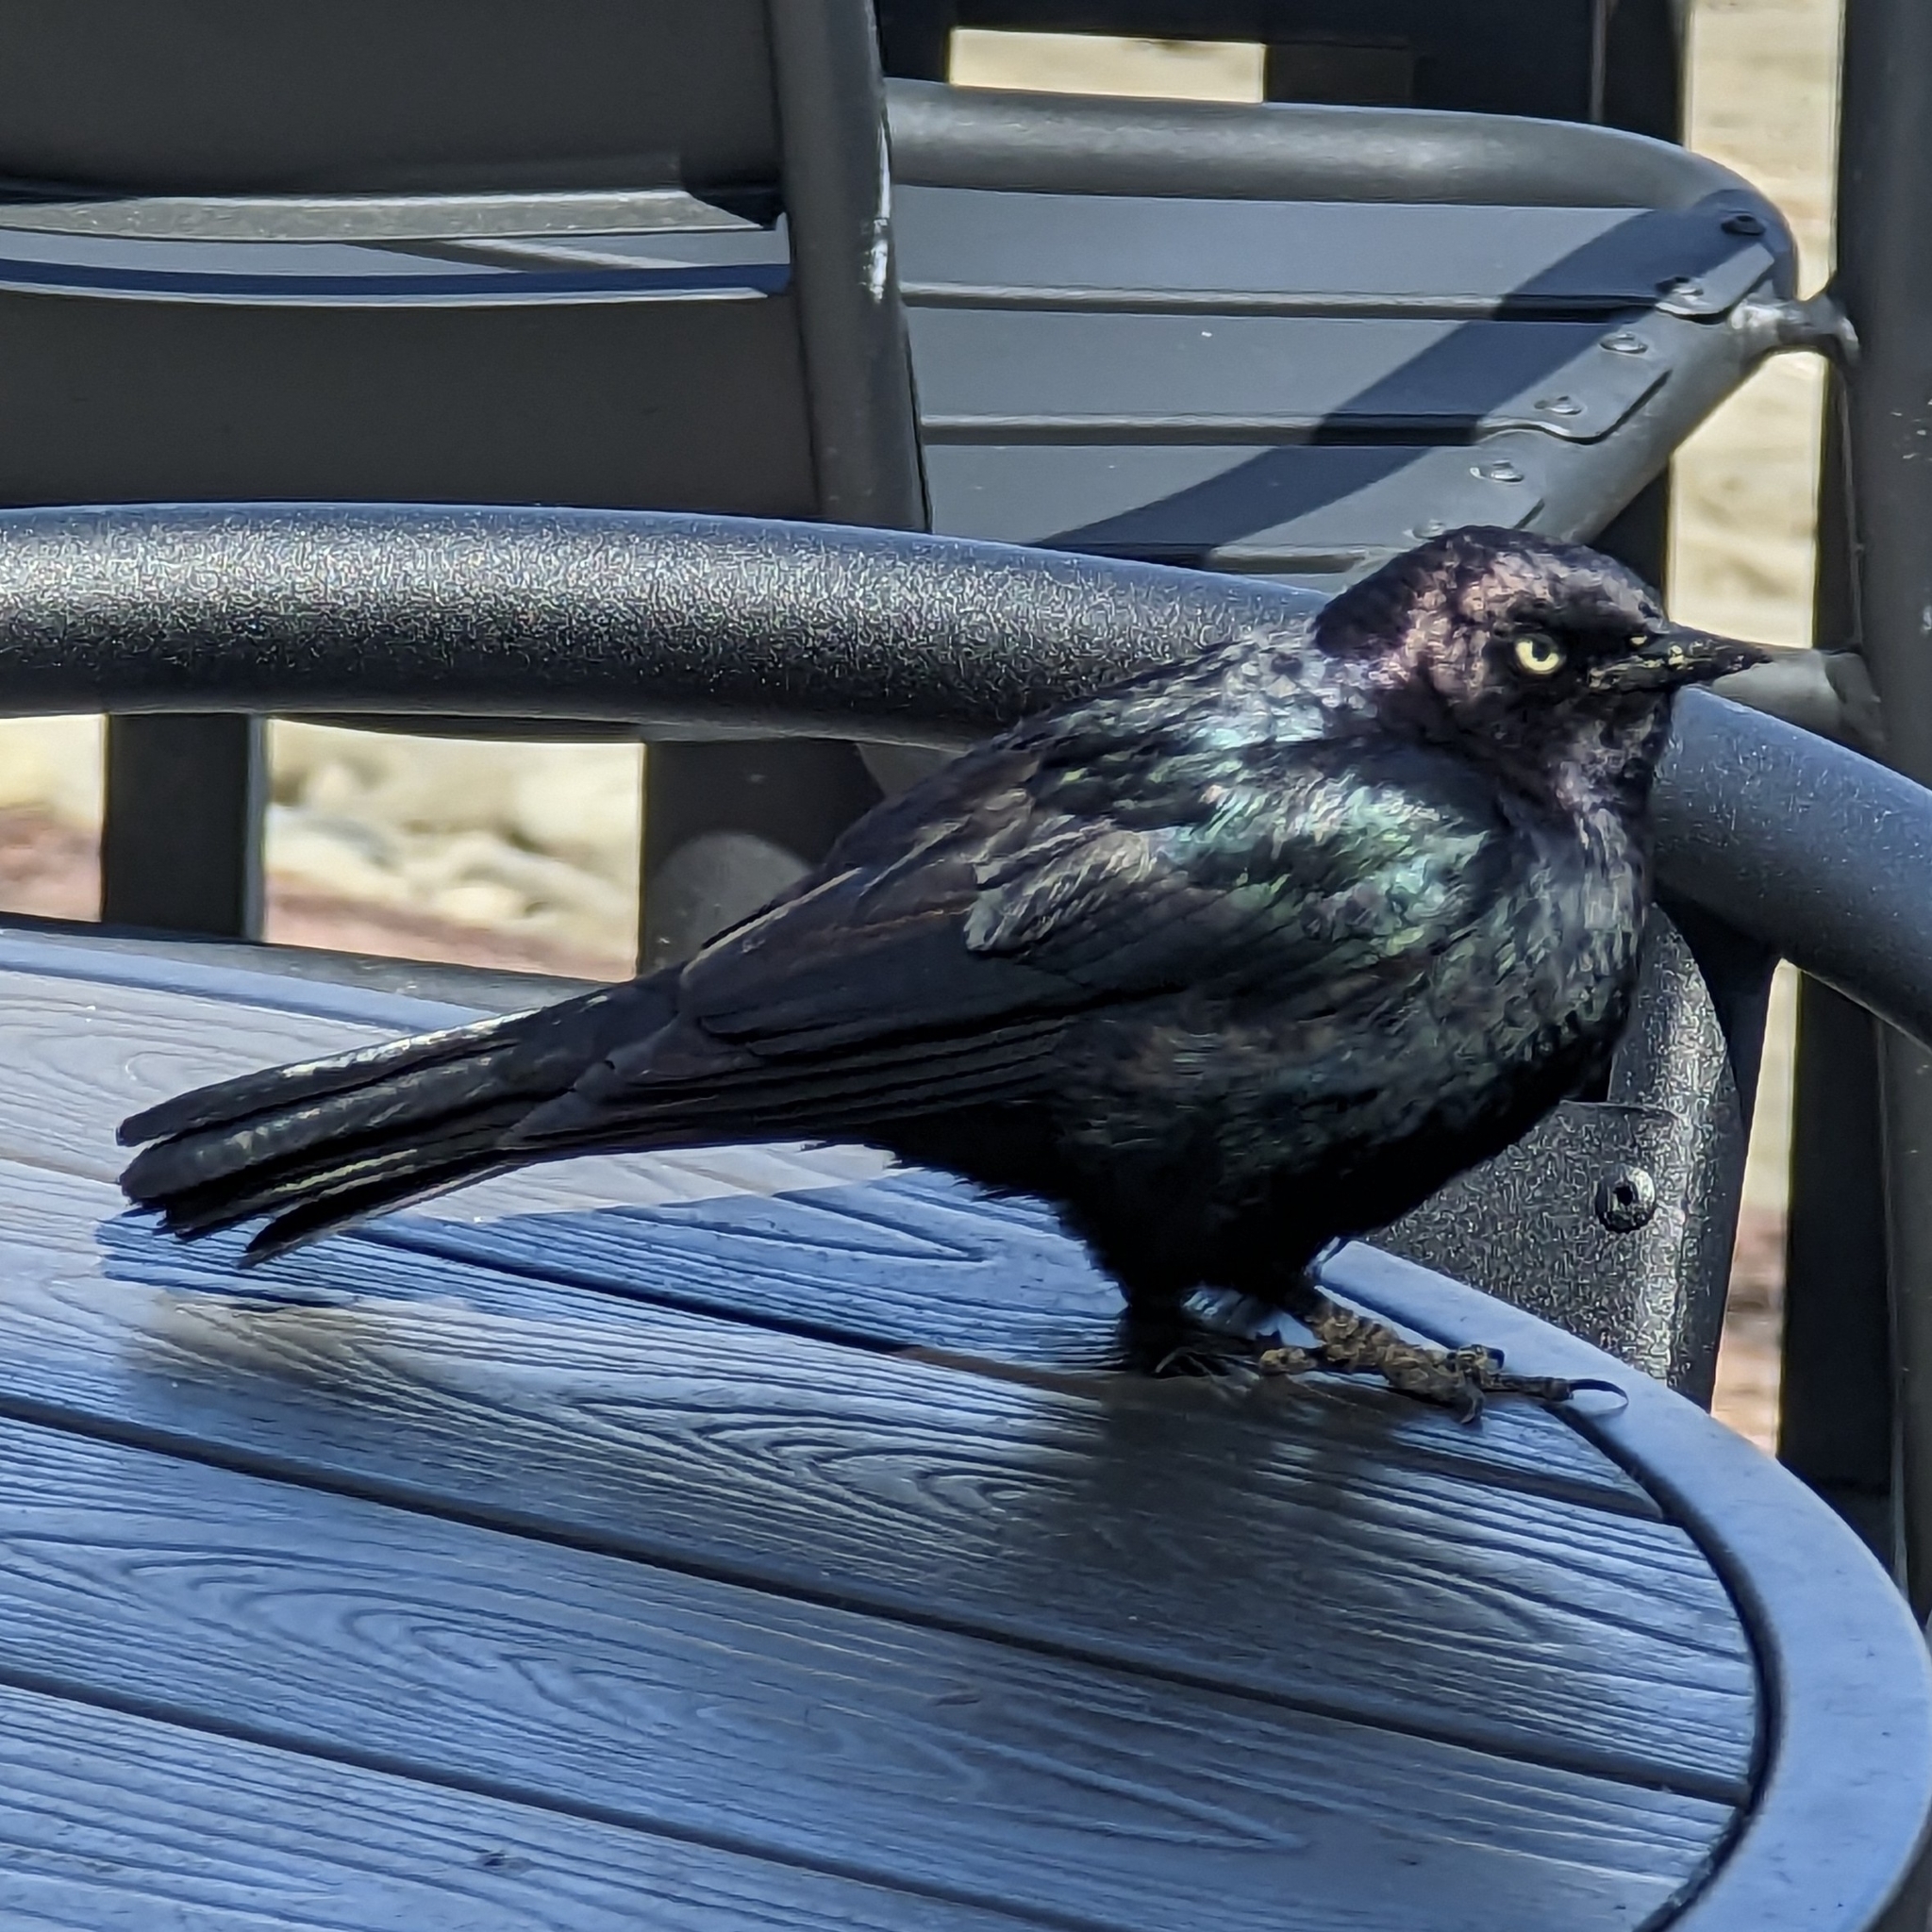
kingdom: Animalia
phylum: Chordata
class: Aves
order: Passeriformes
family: Icteridae
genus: Euphagus
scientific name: Euphagus cyanocephalus
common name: Brewer's blackbird
